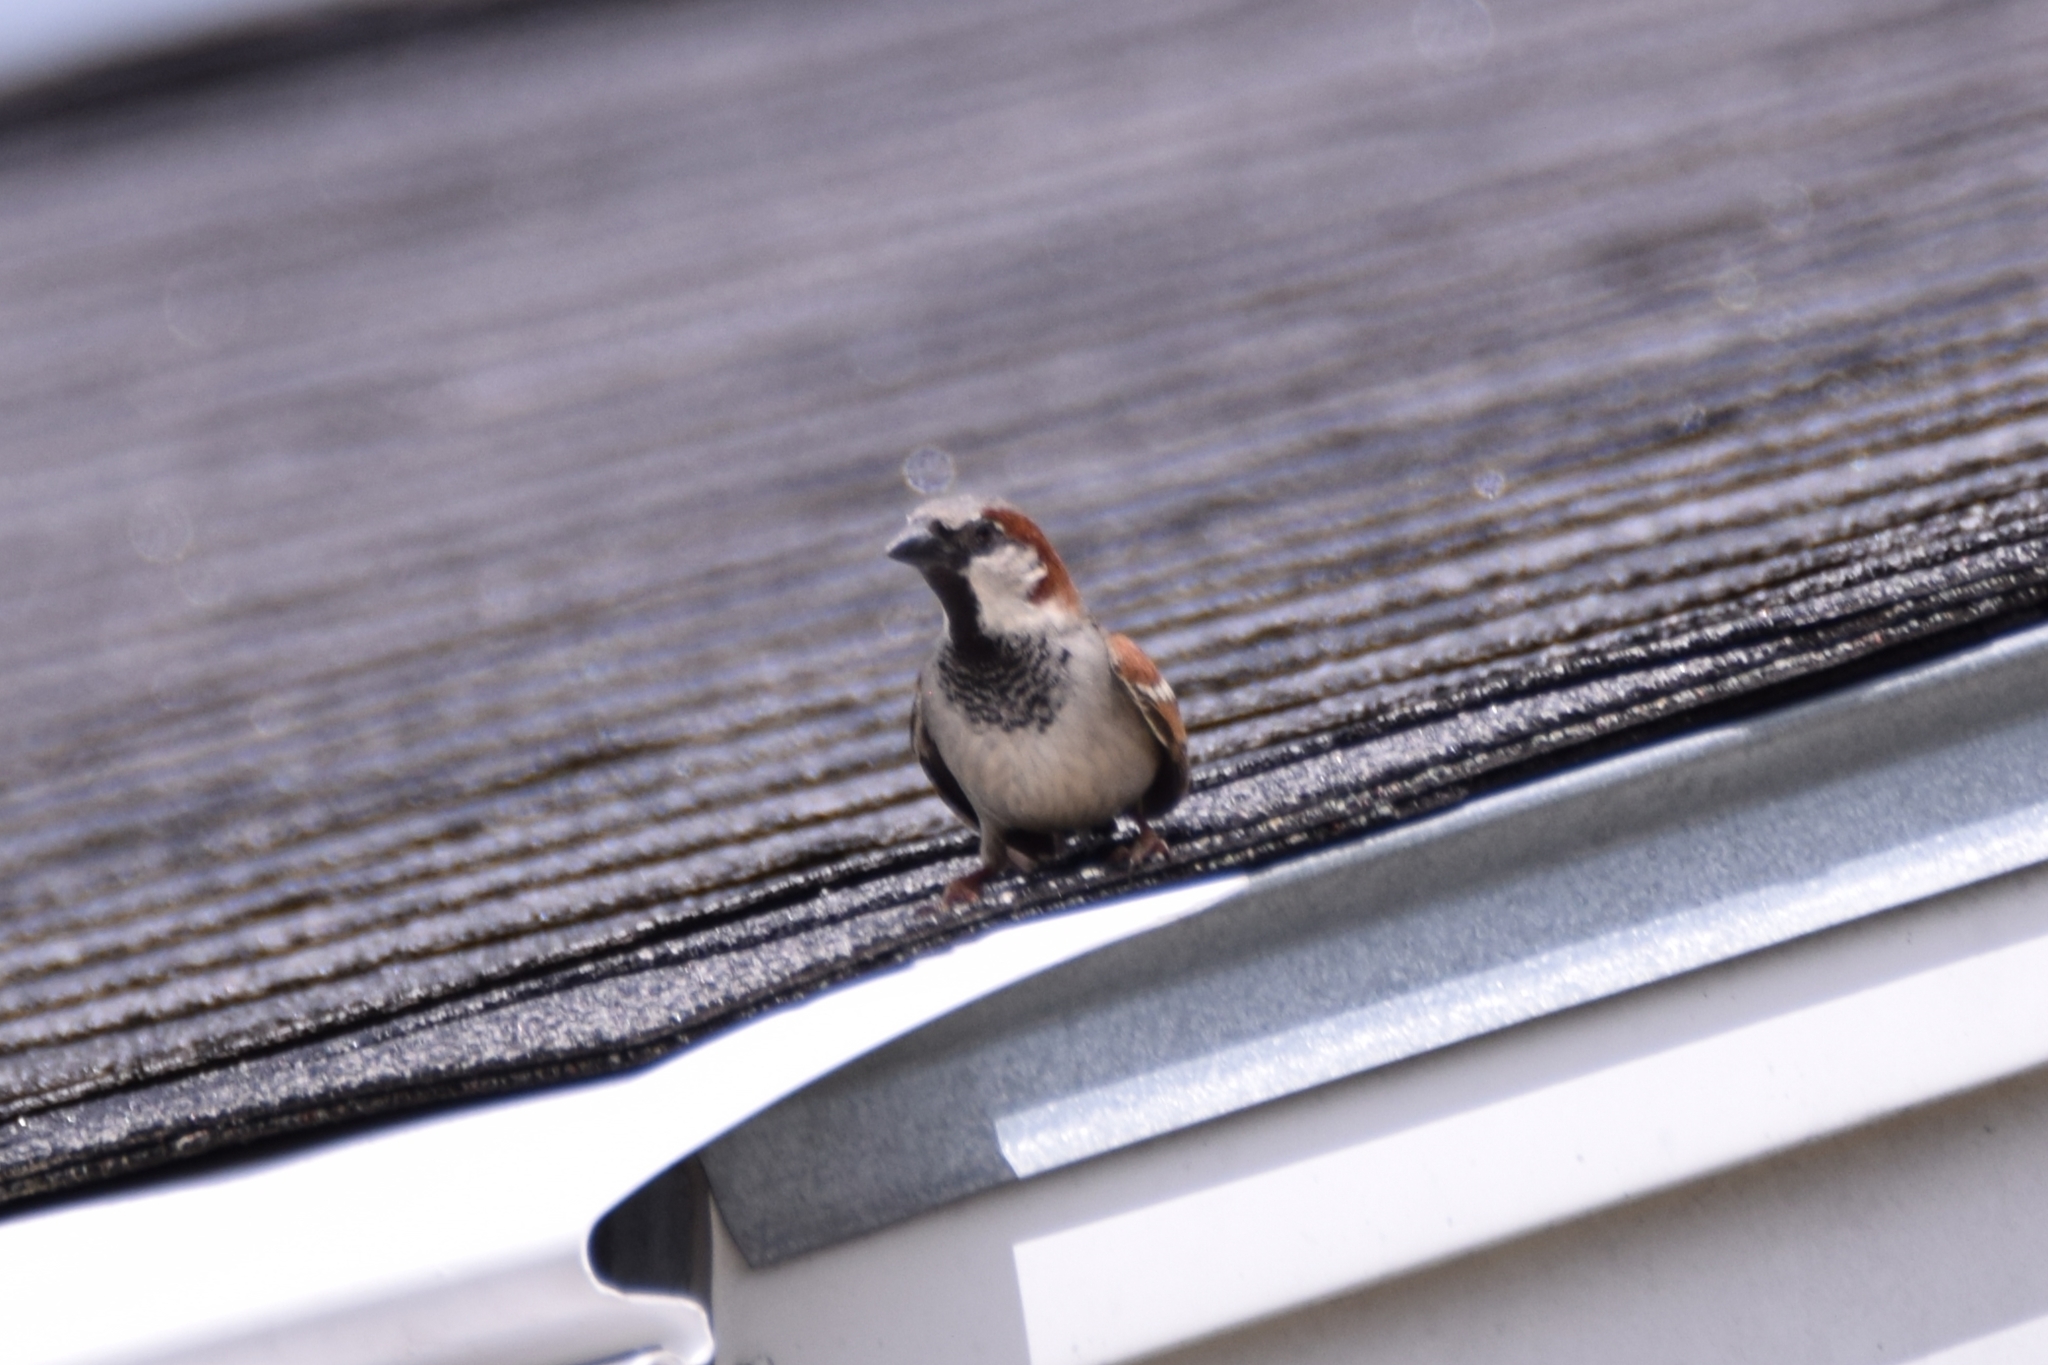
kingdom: Animalia
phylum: Chordata
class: Aves
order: Passeriformes
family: Passeridae
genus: Passer
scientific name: Passer domesticus
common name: House sparrow
